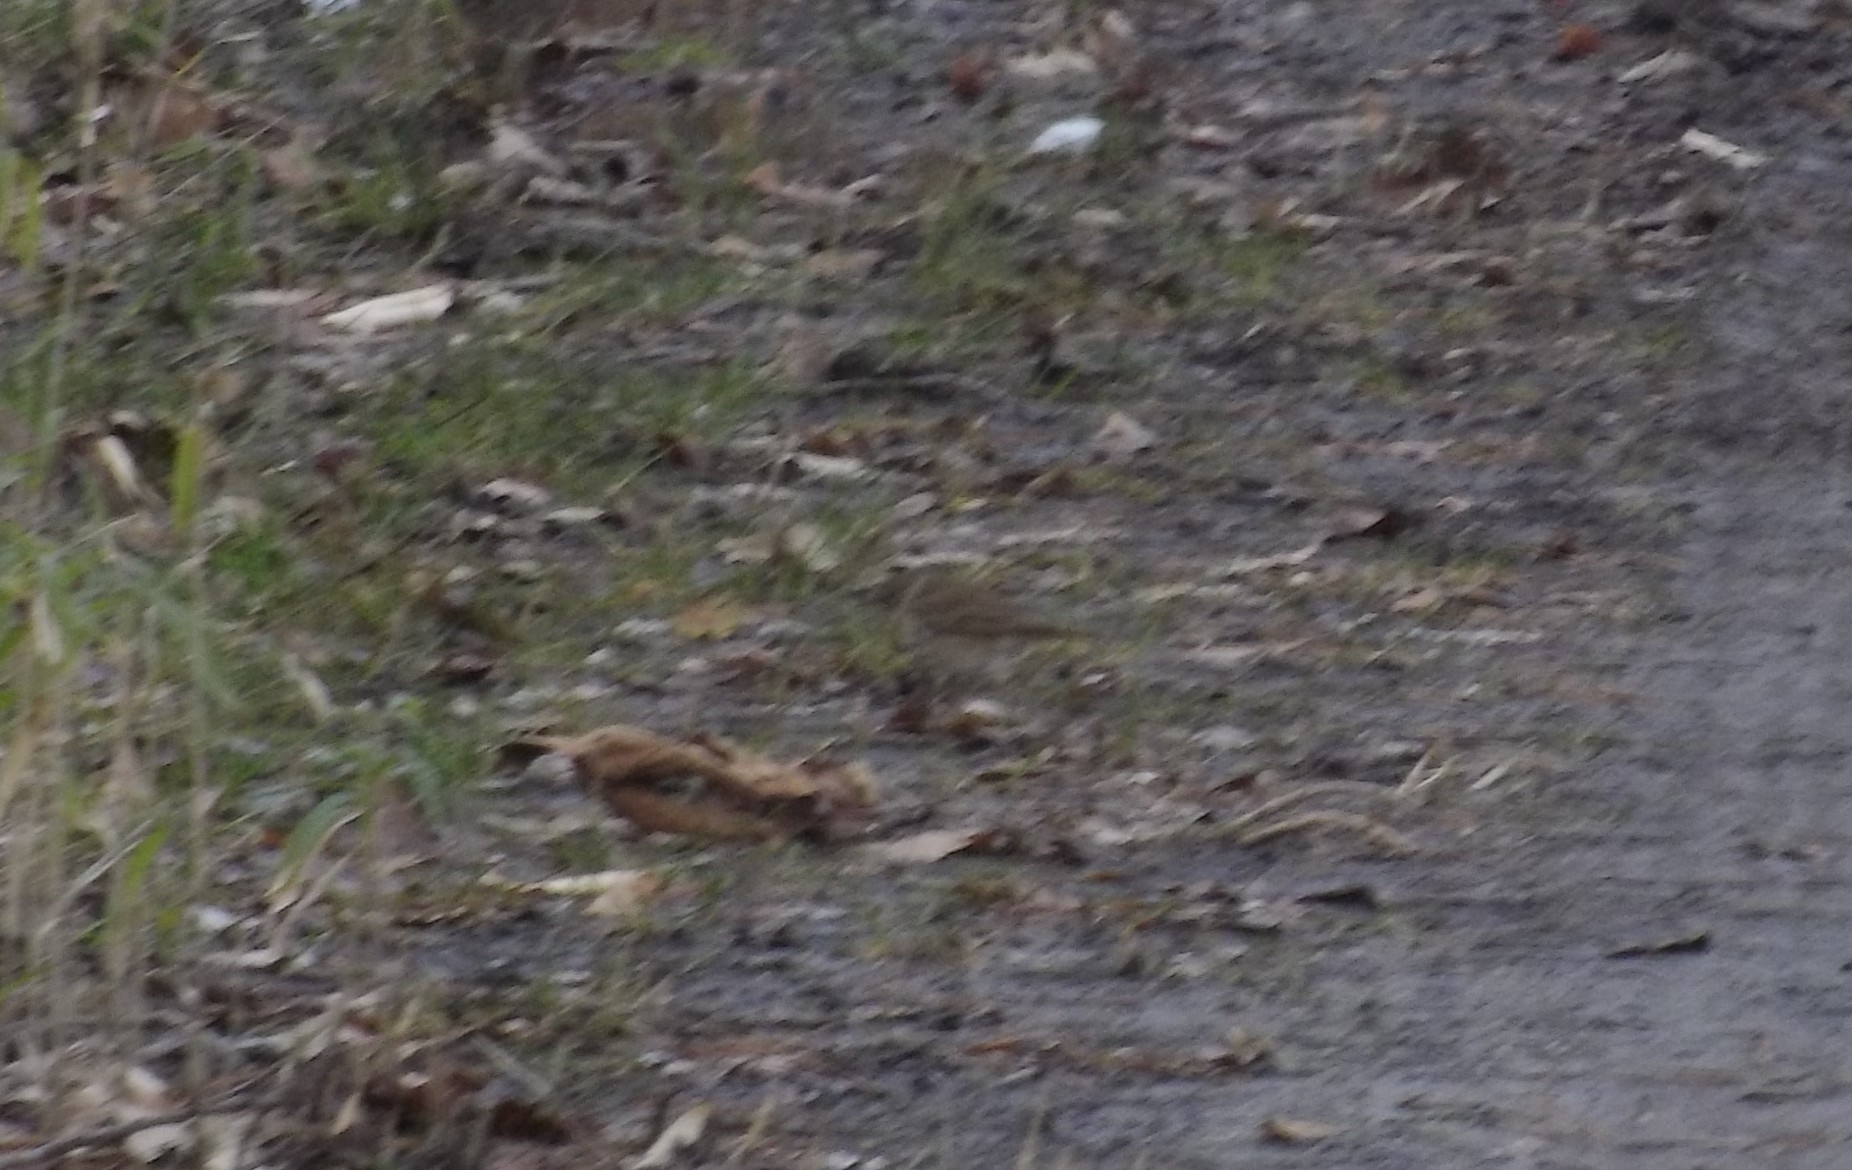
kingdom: Animalia
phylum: Chordata
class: Aves
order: Passeriformes
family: Turdidae
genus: Catharus
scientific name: Catharus guttatus
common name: Hermit thrush
